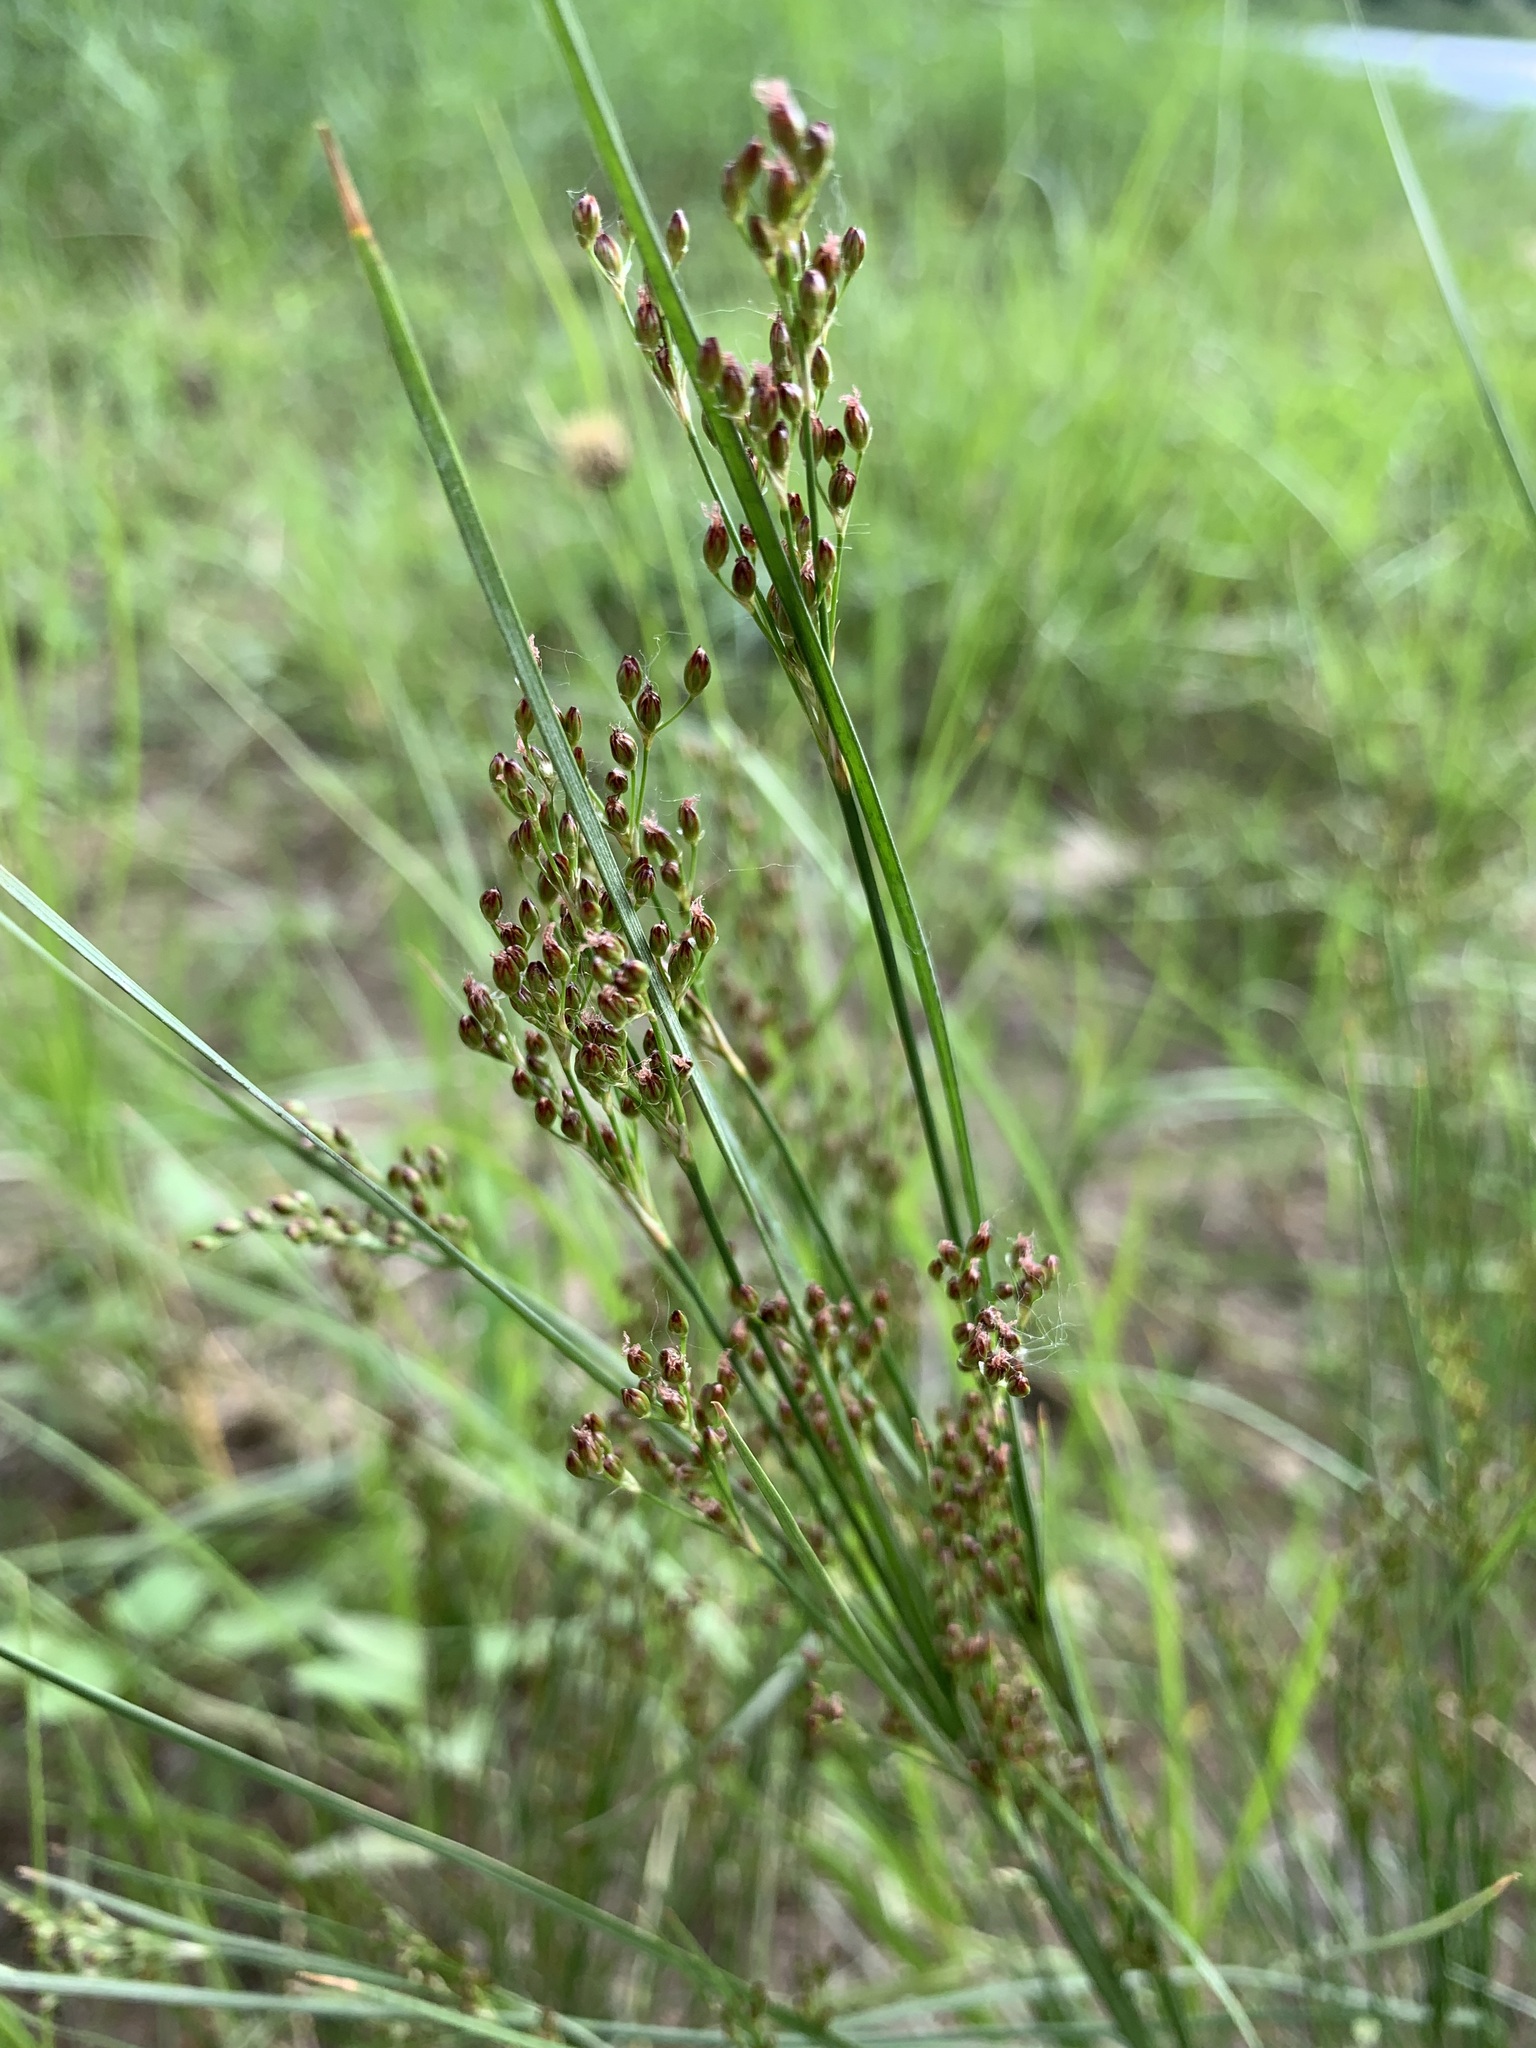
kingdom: Plantae
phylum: Tracheophyta
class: Liliopsida
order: Poales
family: Juncaceae
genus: Juncus
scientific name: Juncus compressus
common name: Round-fruited rush
